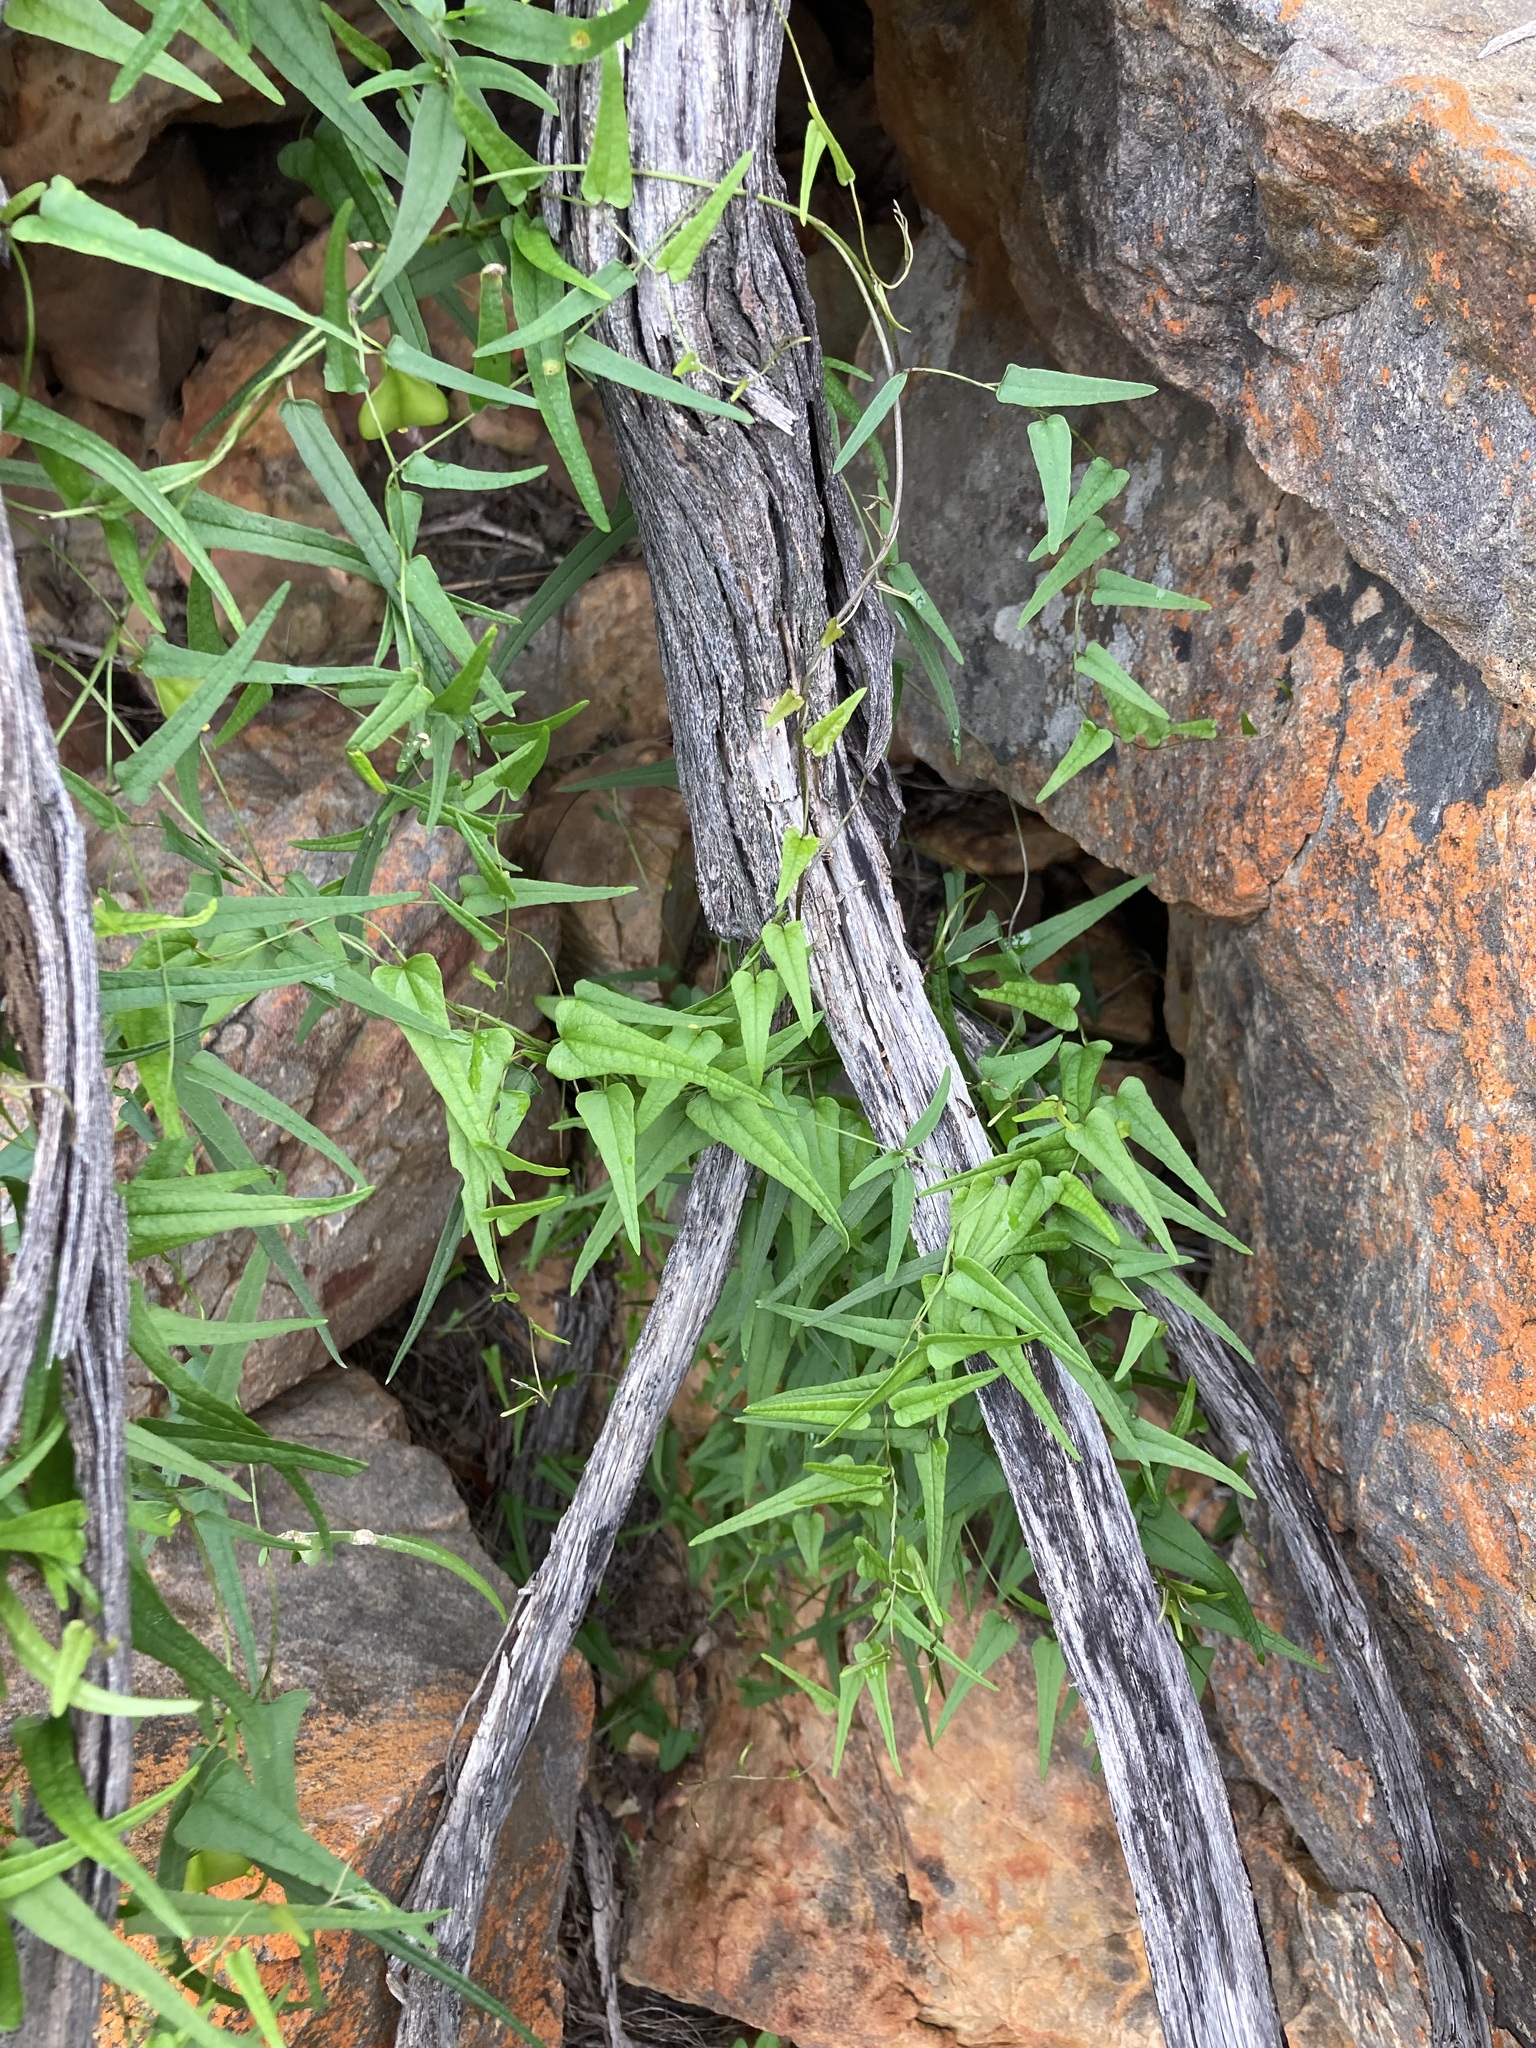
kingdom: Plantae
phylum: Tracheophyta
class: Liliopsida
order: Dioscoreales
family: Dioscoreaceae
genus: Dioscorea
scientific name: Dioscorea hastifolia
